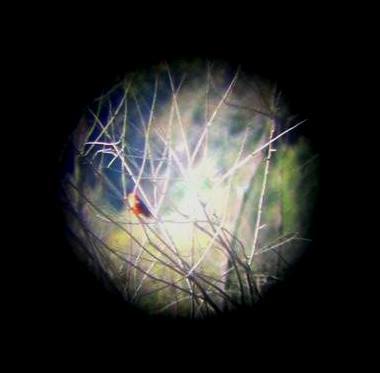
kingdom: Animalia
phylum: Chordata
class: Aves
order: Passeriformes
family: Tyrannidae
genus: Pyrocephalus
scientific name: Pyrocephalus rubinus
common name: Vermilion flycatcher
